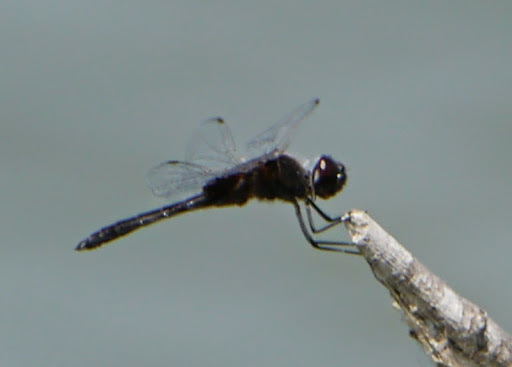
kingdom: Animalia
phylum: Arthropoda
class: Insecta
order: Odonata
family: Libellulidae
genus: Macrodiplax
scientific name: Macrodiplax balteata
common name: Marl pennant
